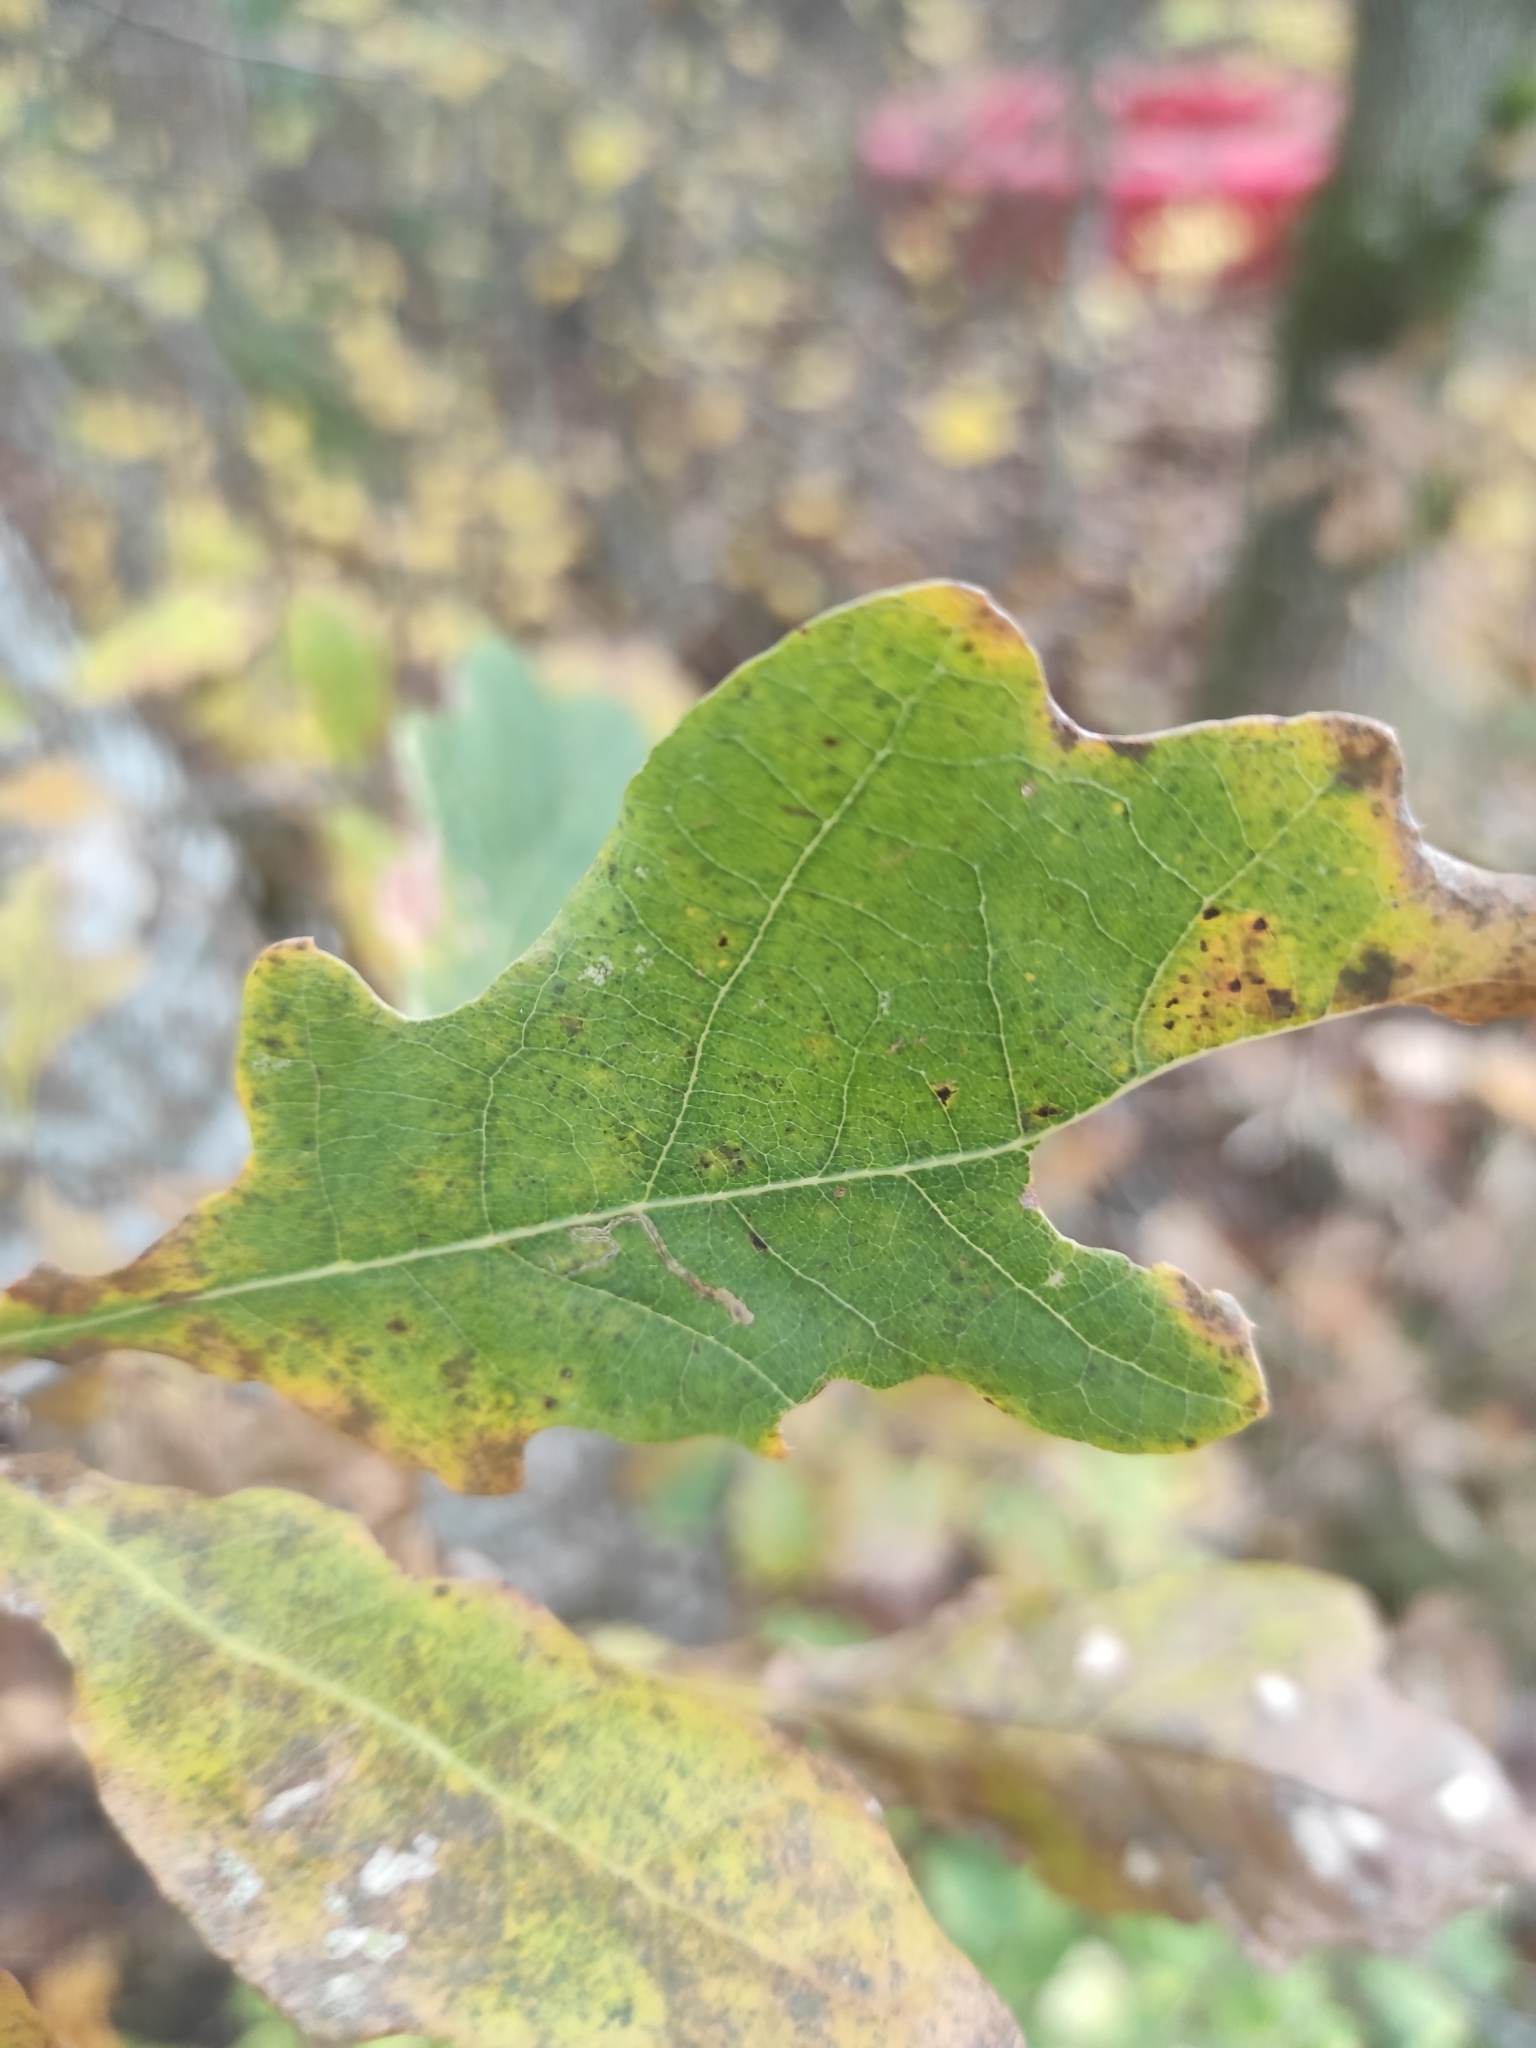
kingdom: Plantae
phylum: Tracheophyta
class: Magnoliopsida
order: Fagales
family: Fagaceae
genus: Quercus
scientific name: Quercus robur
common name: Pedunculate oak
